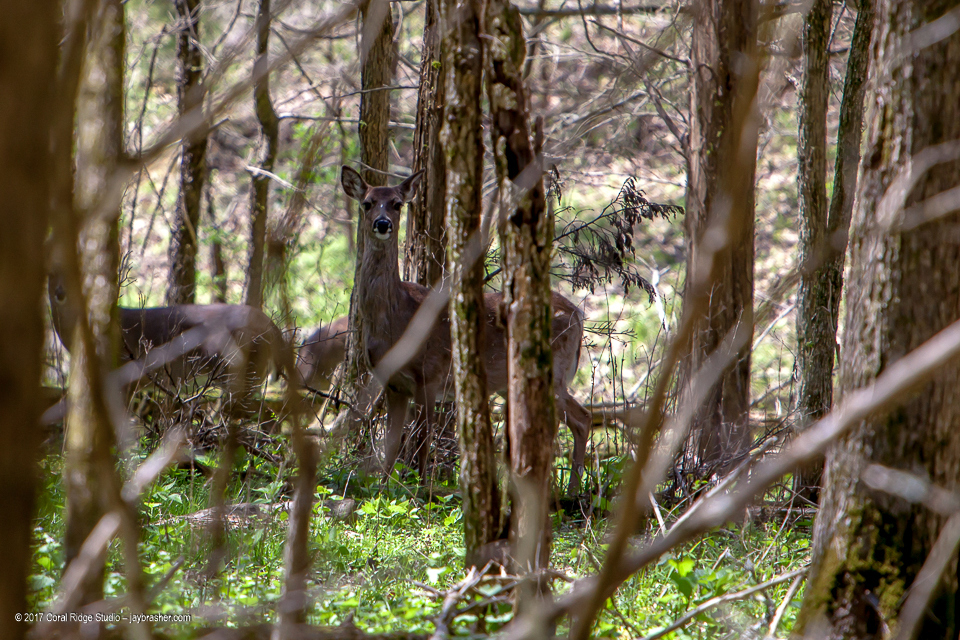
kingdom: Animalia
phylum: Chordata
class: Mammalia
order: Artiodactyla
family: Cervidae
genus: Odocoileus
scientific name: Odocoileus virginianus
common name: White-tailed deer
